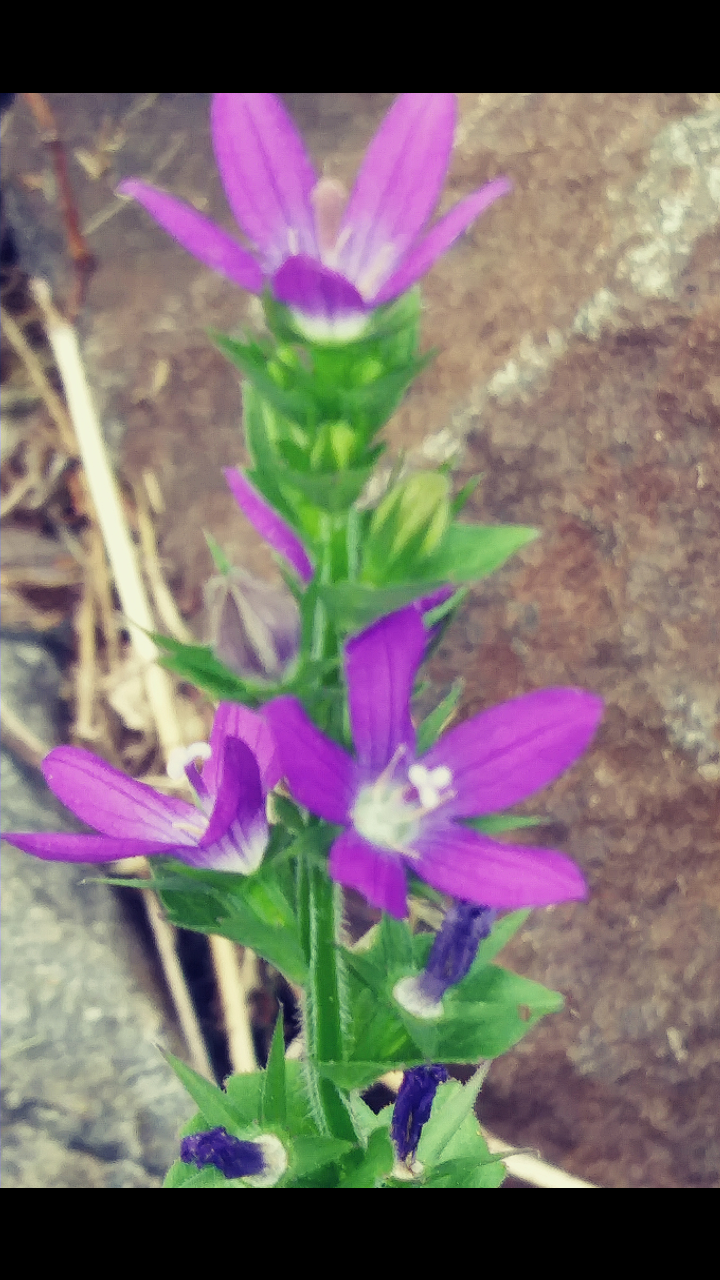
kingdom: Plantae
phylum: Tracheophyta
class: Magnoliopsida
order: Asterales
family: Campanulaceae
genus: Triodanis
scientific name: Triodanis perfoliata
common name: Clasping venus' looking-glass
